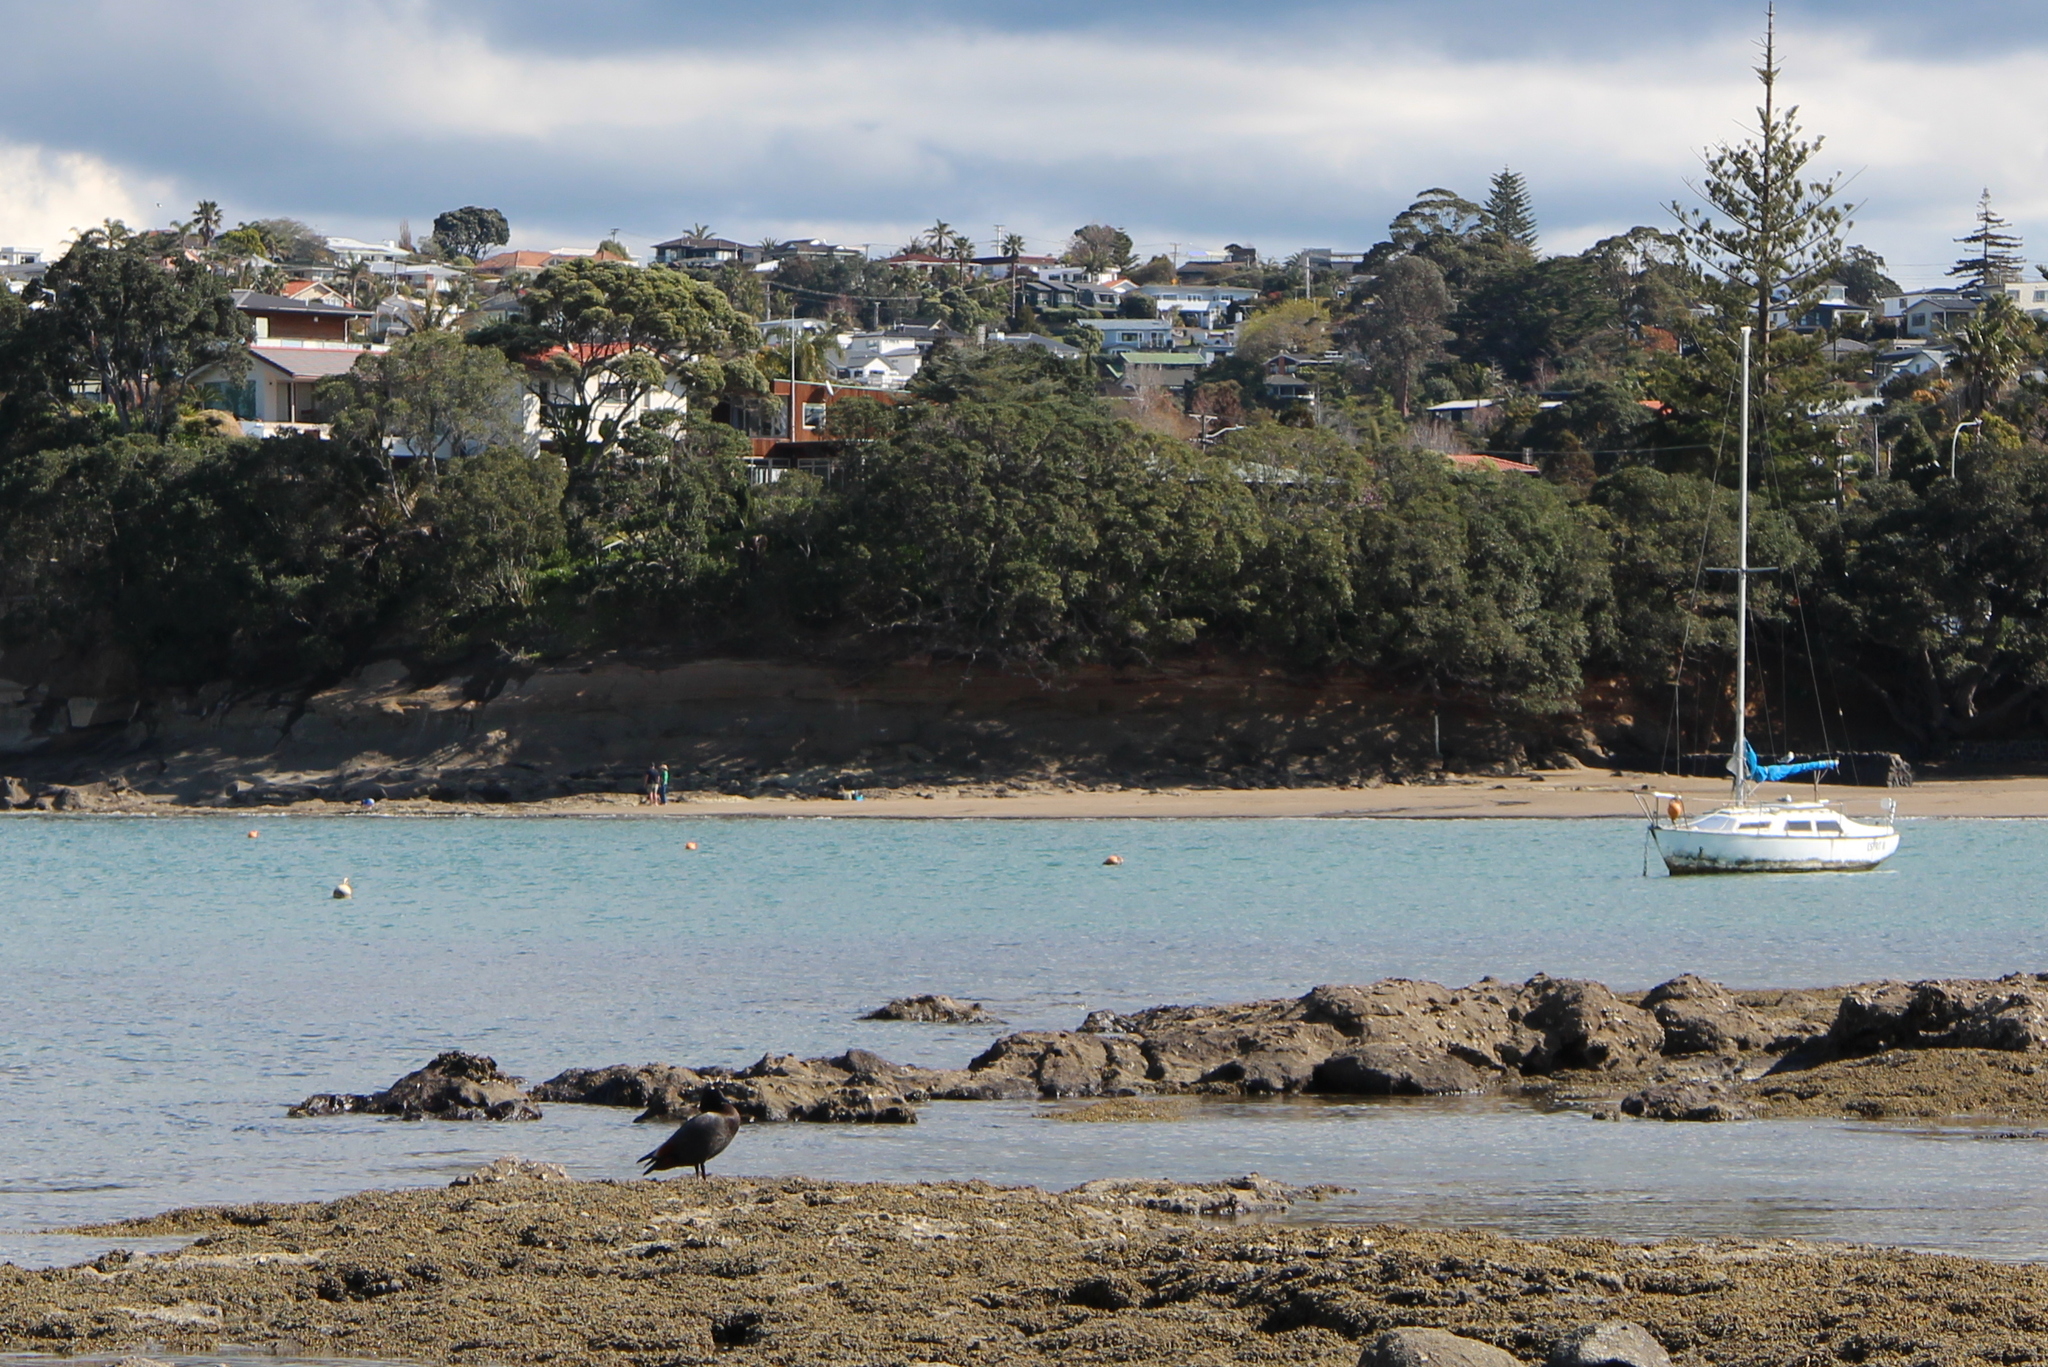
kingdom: Animalia
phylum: Chordata
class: Aves
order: Anseriformes
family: Anatidae
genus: Tadorna
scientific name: Tadorna variegata
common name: Paradise shelduck
